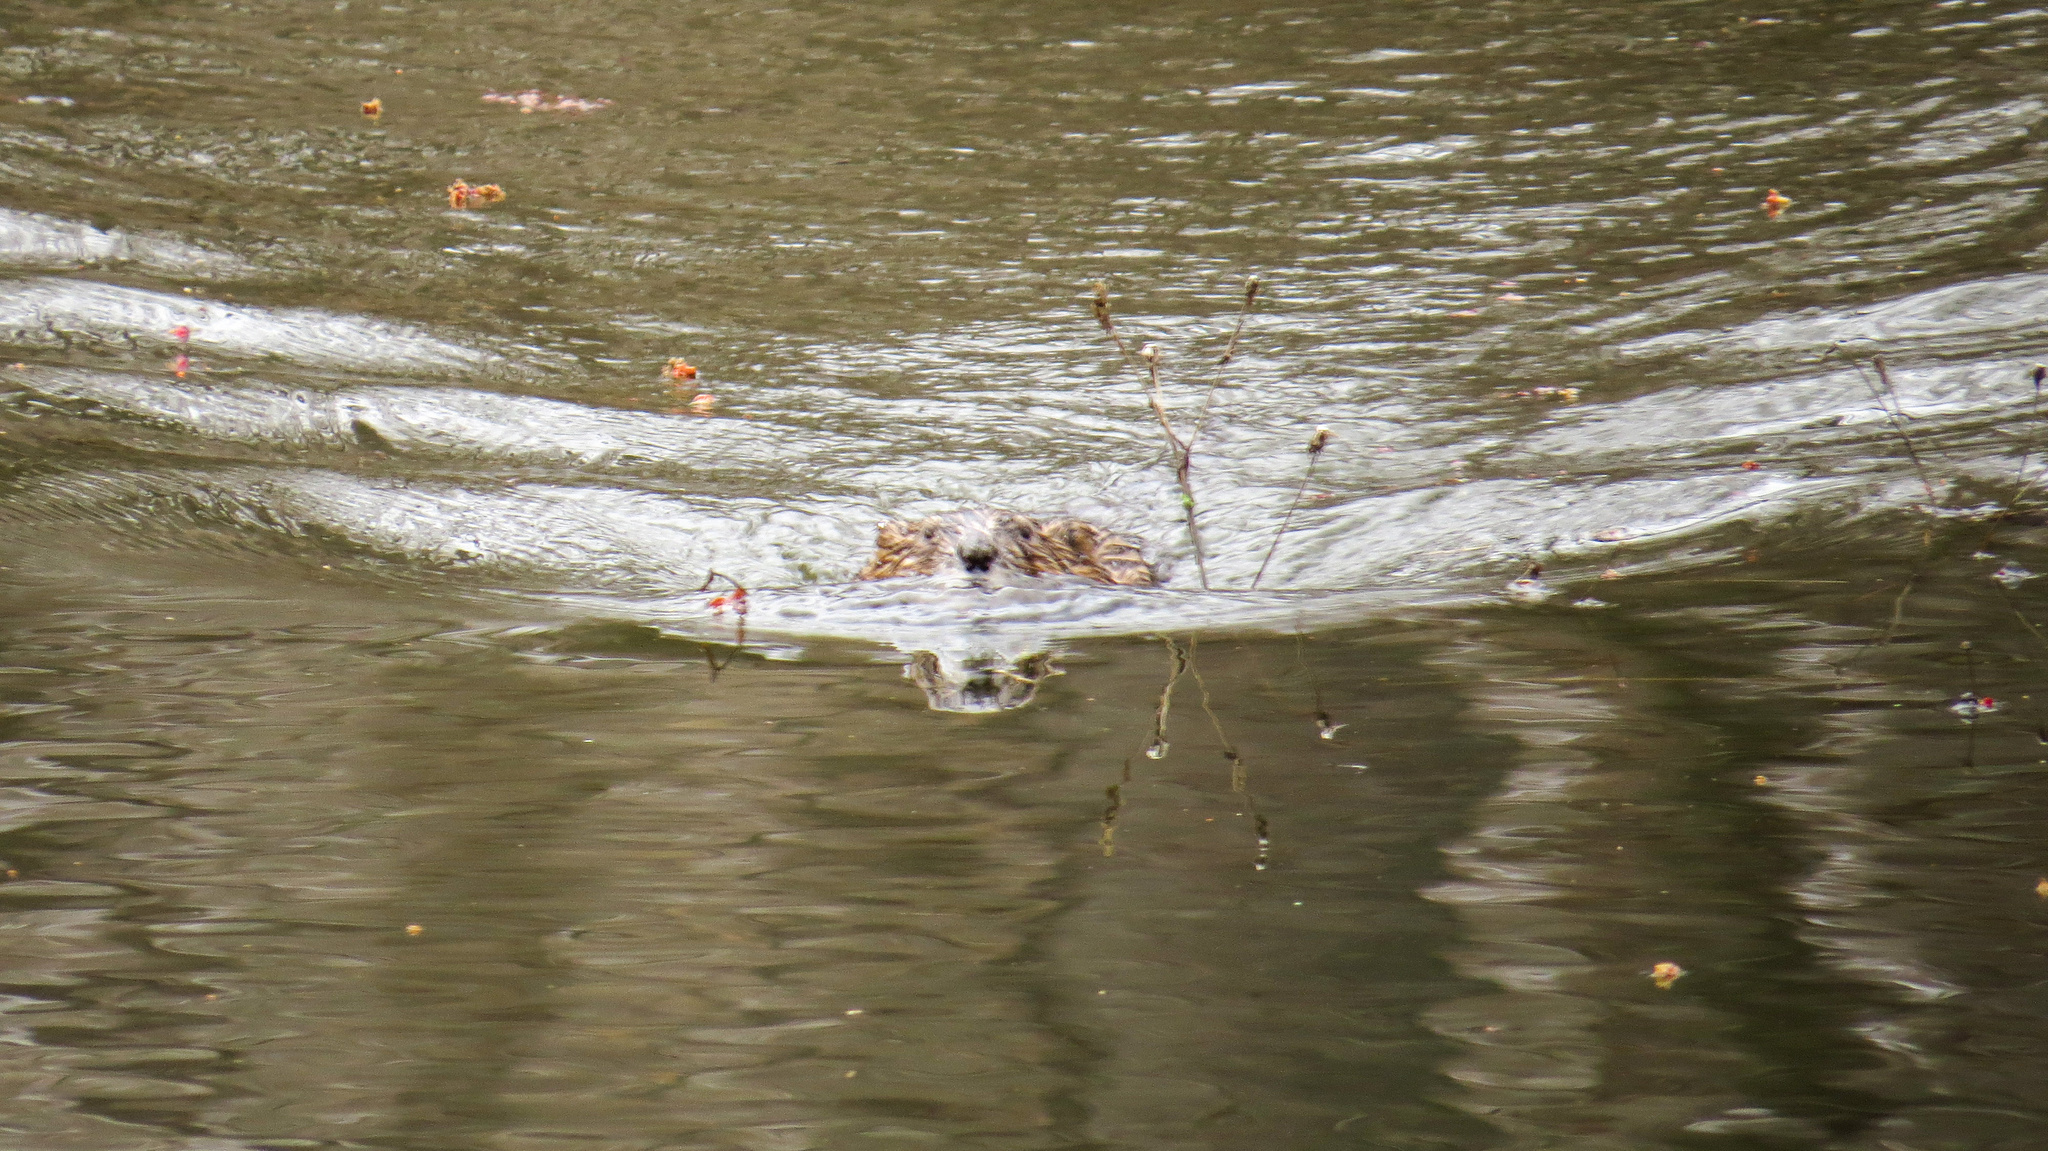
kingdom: Animalia
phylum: Chordata
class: Mammalia
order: Rodentia
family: Castoridae
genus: Castor
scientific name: Castor canadensis
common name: American beaver
